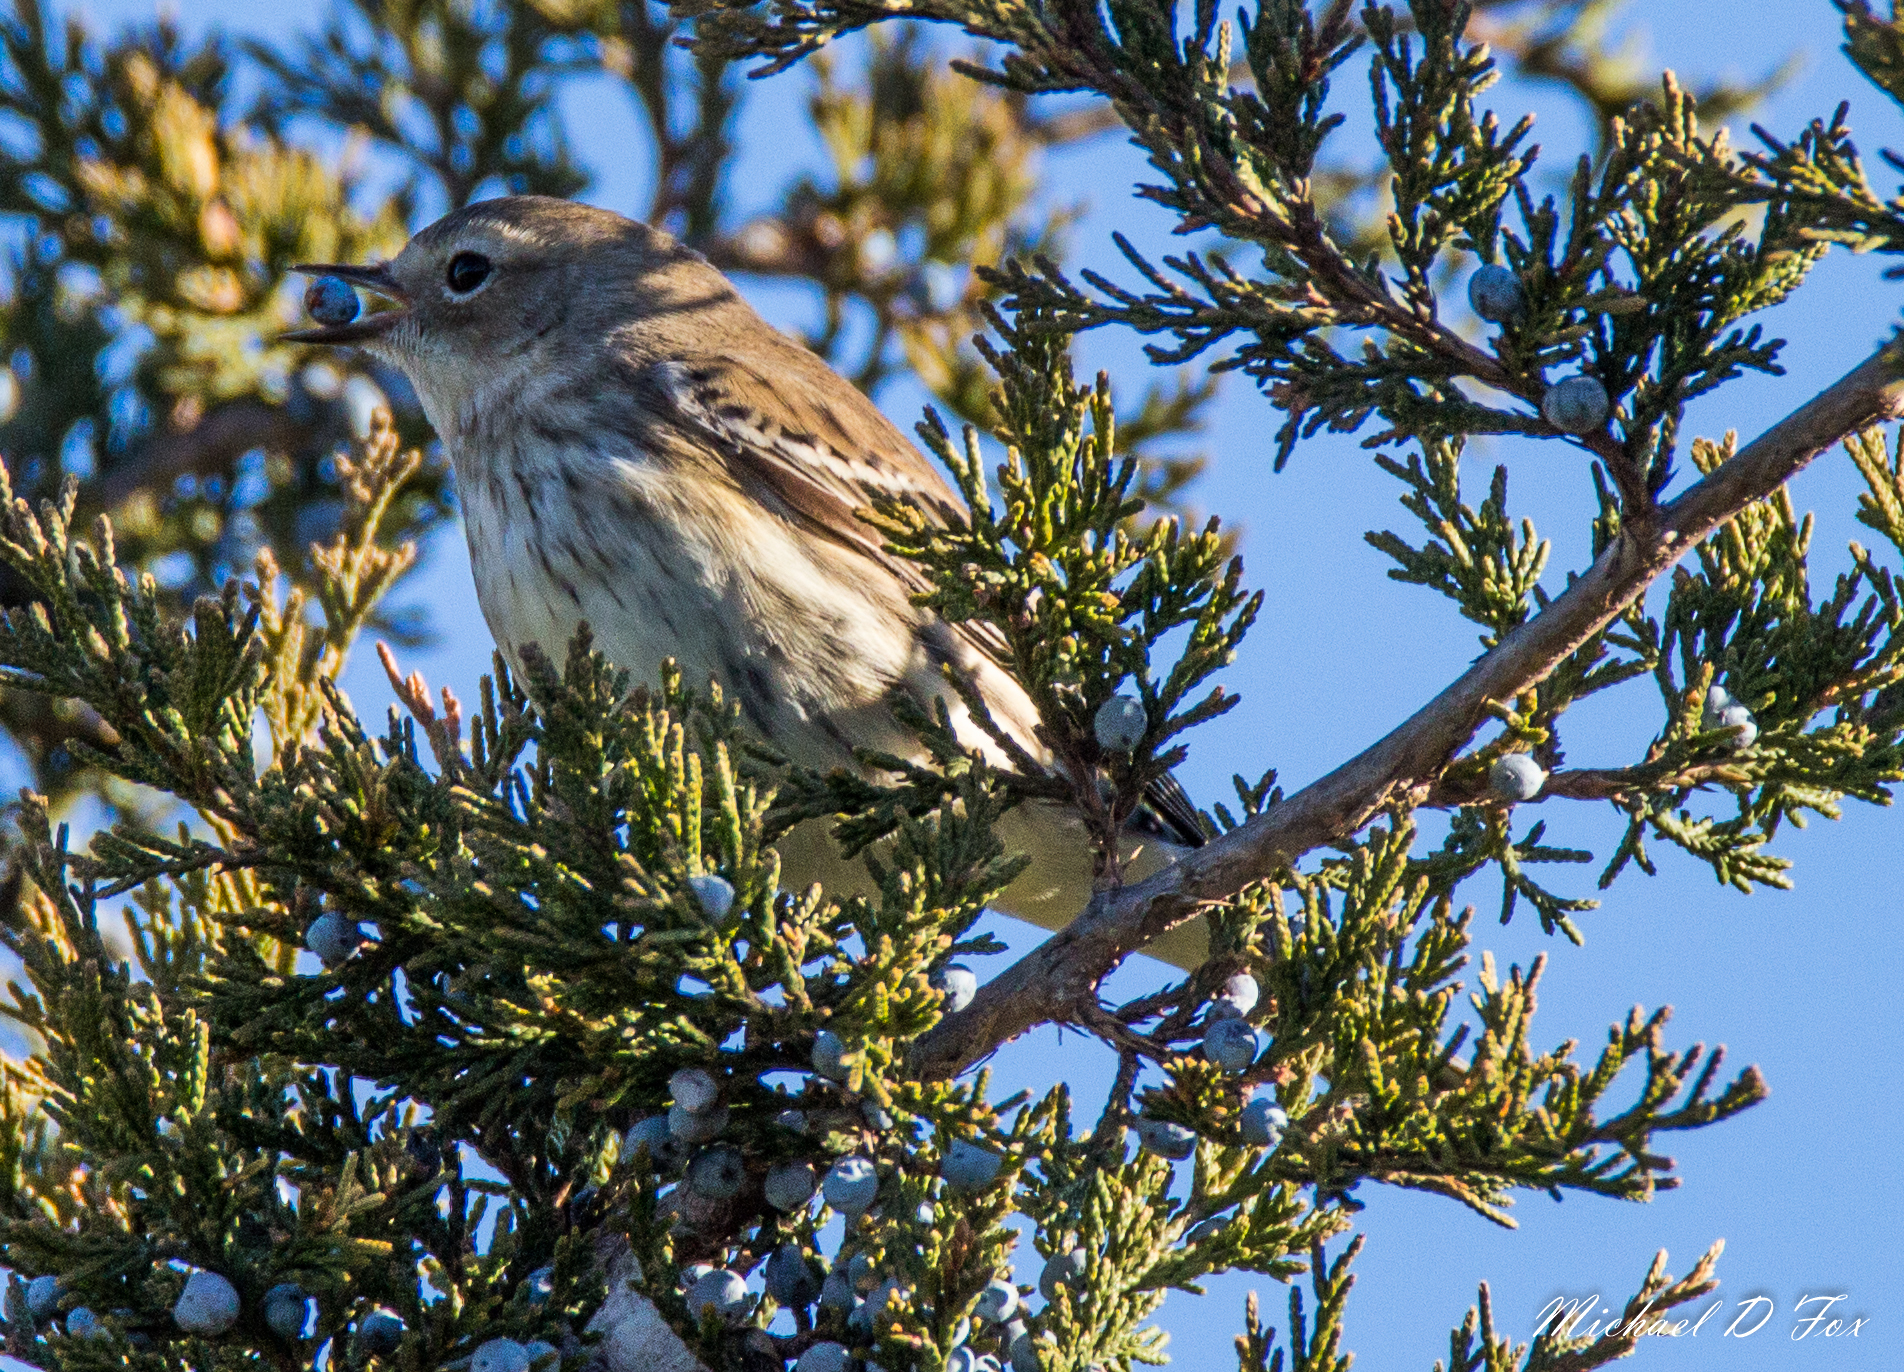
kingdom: Animalia
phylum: Chordata
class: Aves
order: Passeriformes
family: Parulidae
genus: Setophaga
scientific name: Setophaga coronata
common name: Myrtle warbler
